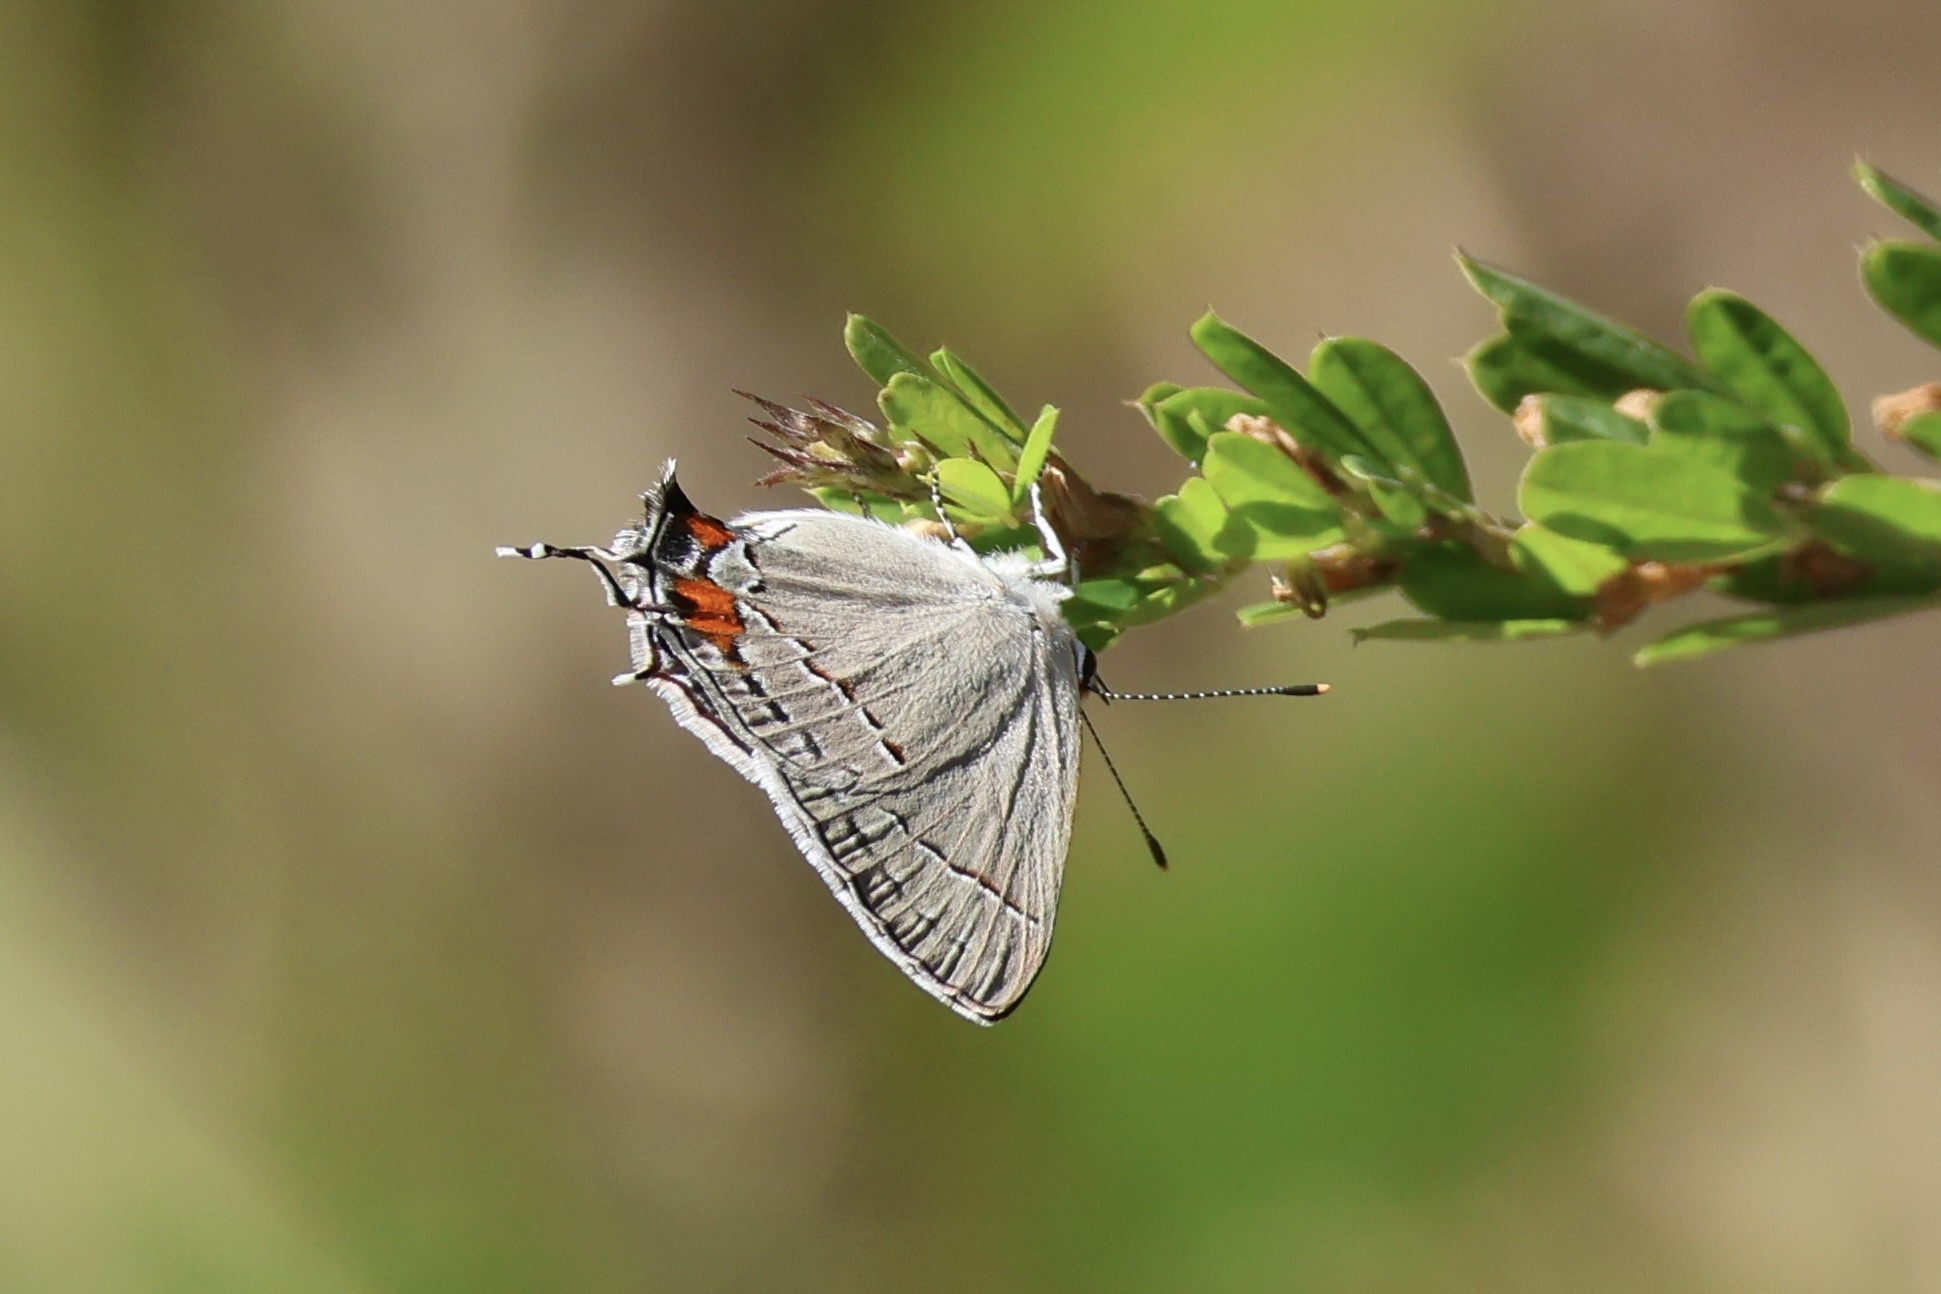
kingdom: Animalia
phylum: Arthropoda
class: Insecta
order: Lepidoptera
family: Lycaenidae
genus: Strymon
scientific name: Strymon melinus
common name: Gray hairstreak
